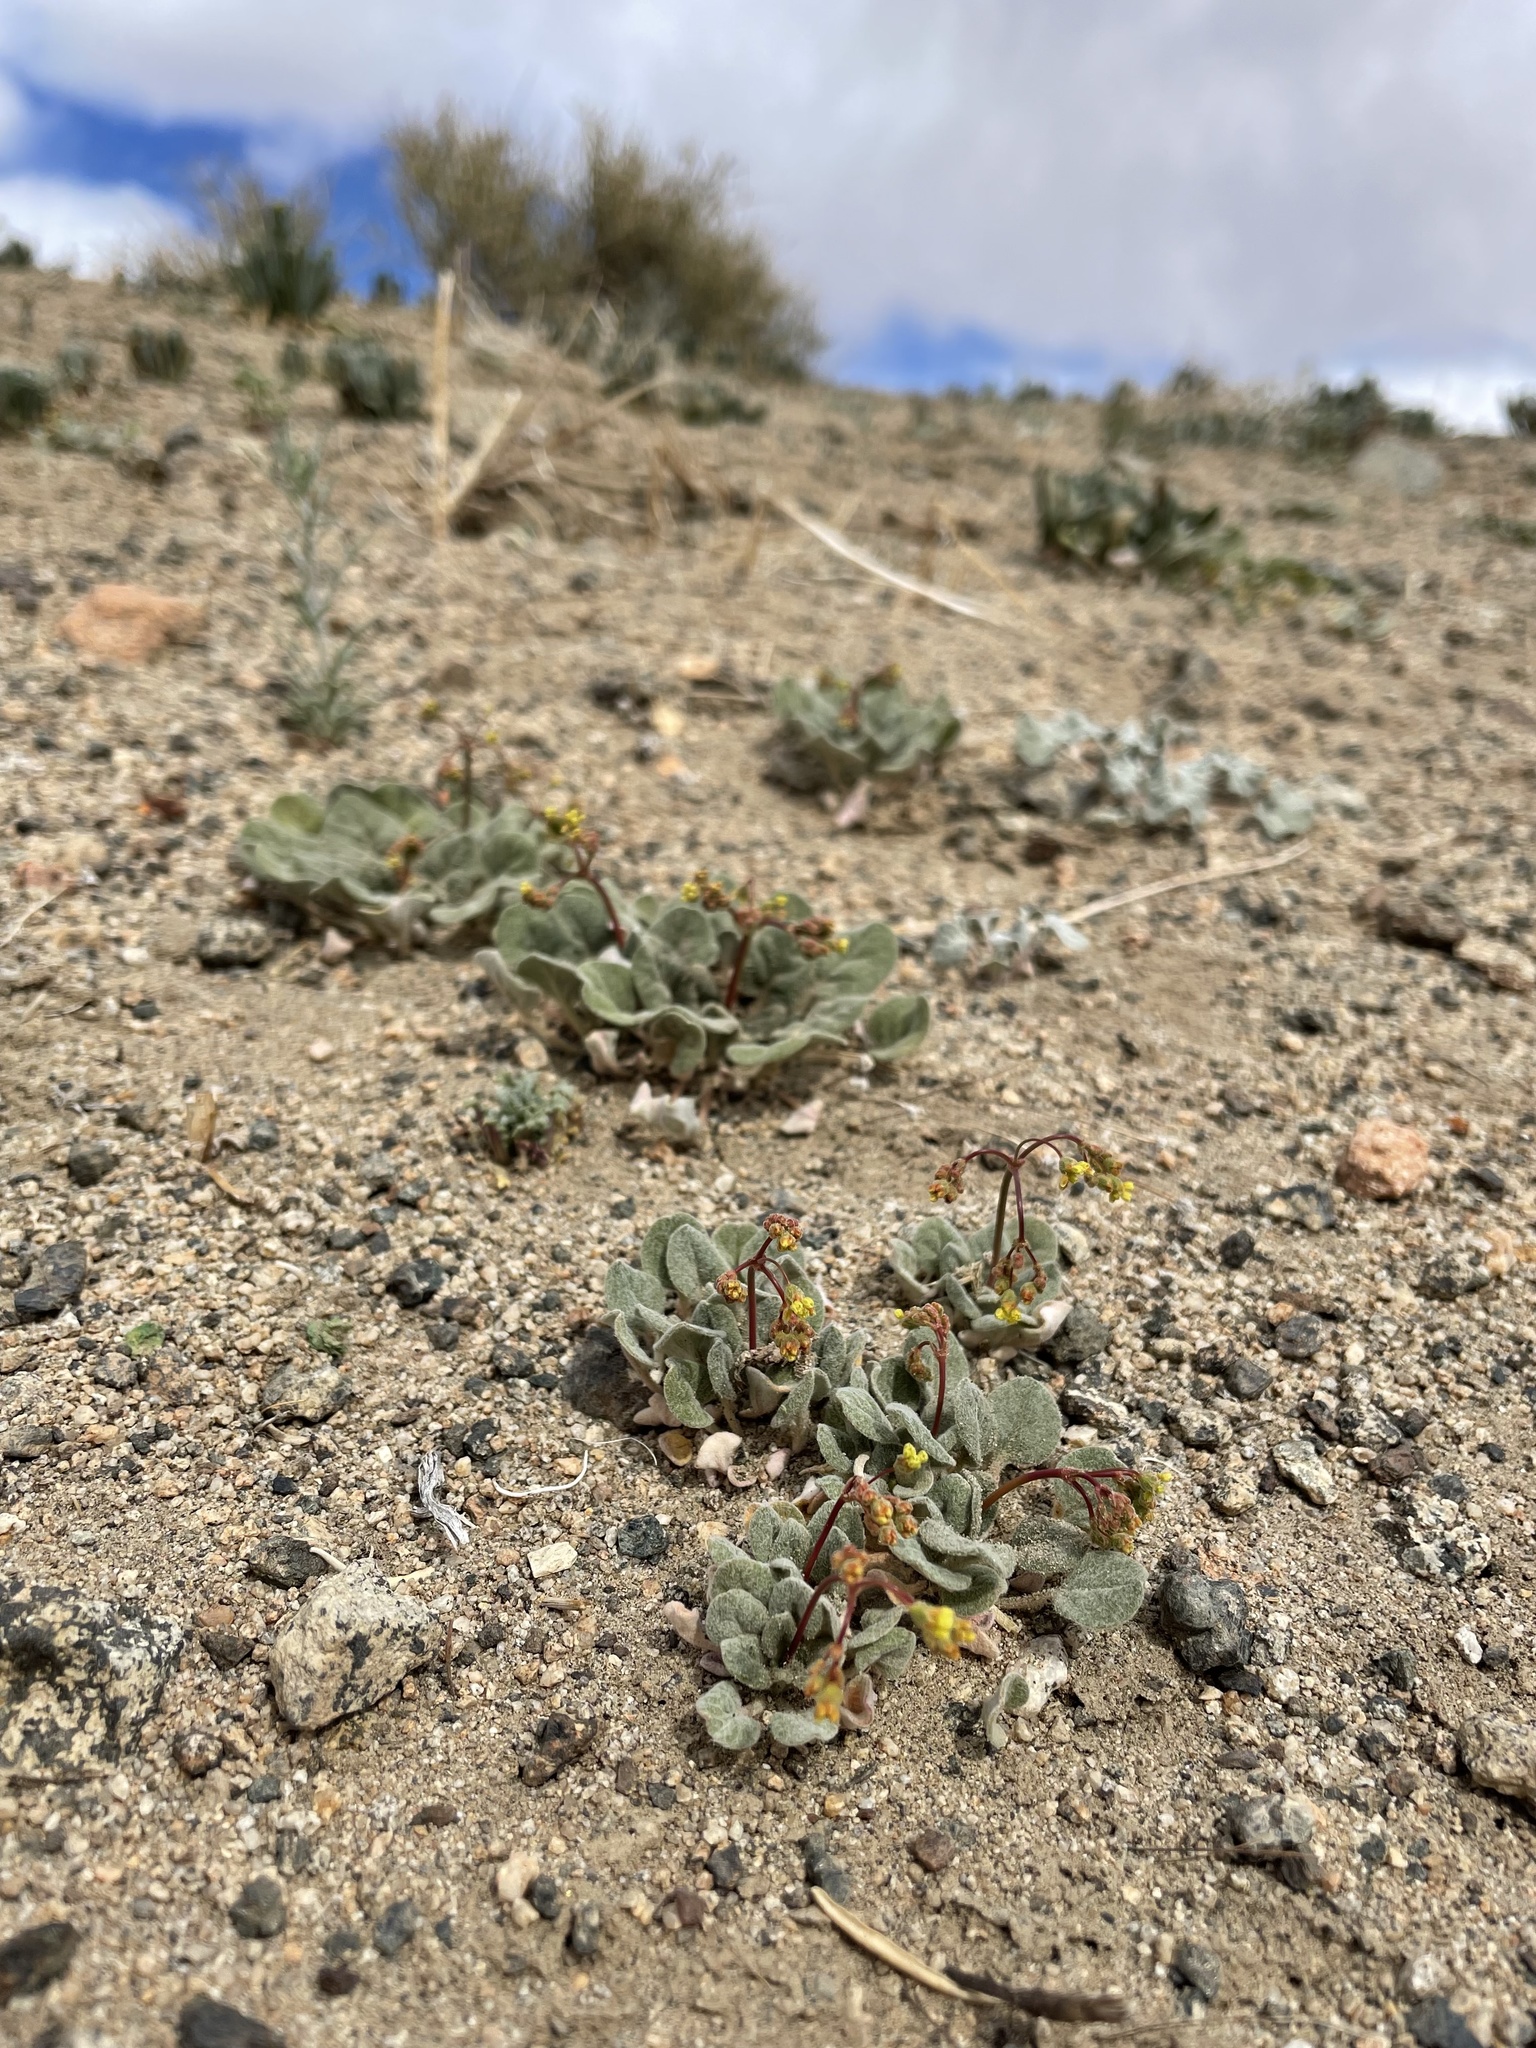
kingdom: Plantae
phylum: Tracheophyta
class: Magnoliopsida
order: Caryophyllales
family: Polygonaceae
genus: Eriogonum
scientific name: Eriogonum pusillum
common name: Yellow turbans
